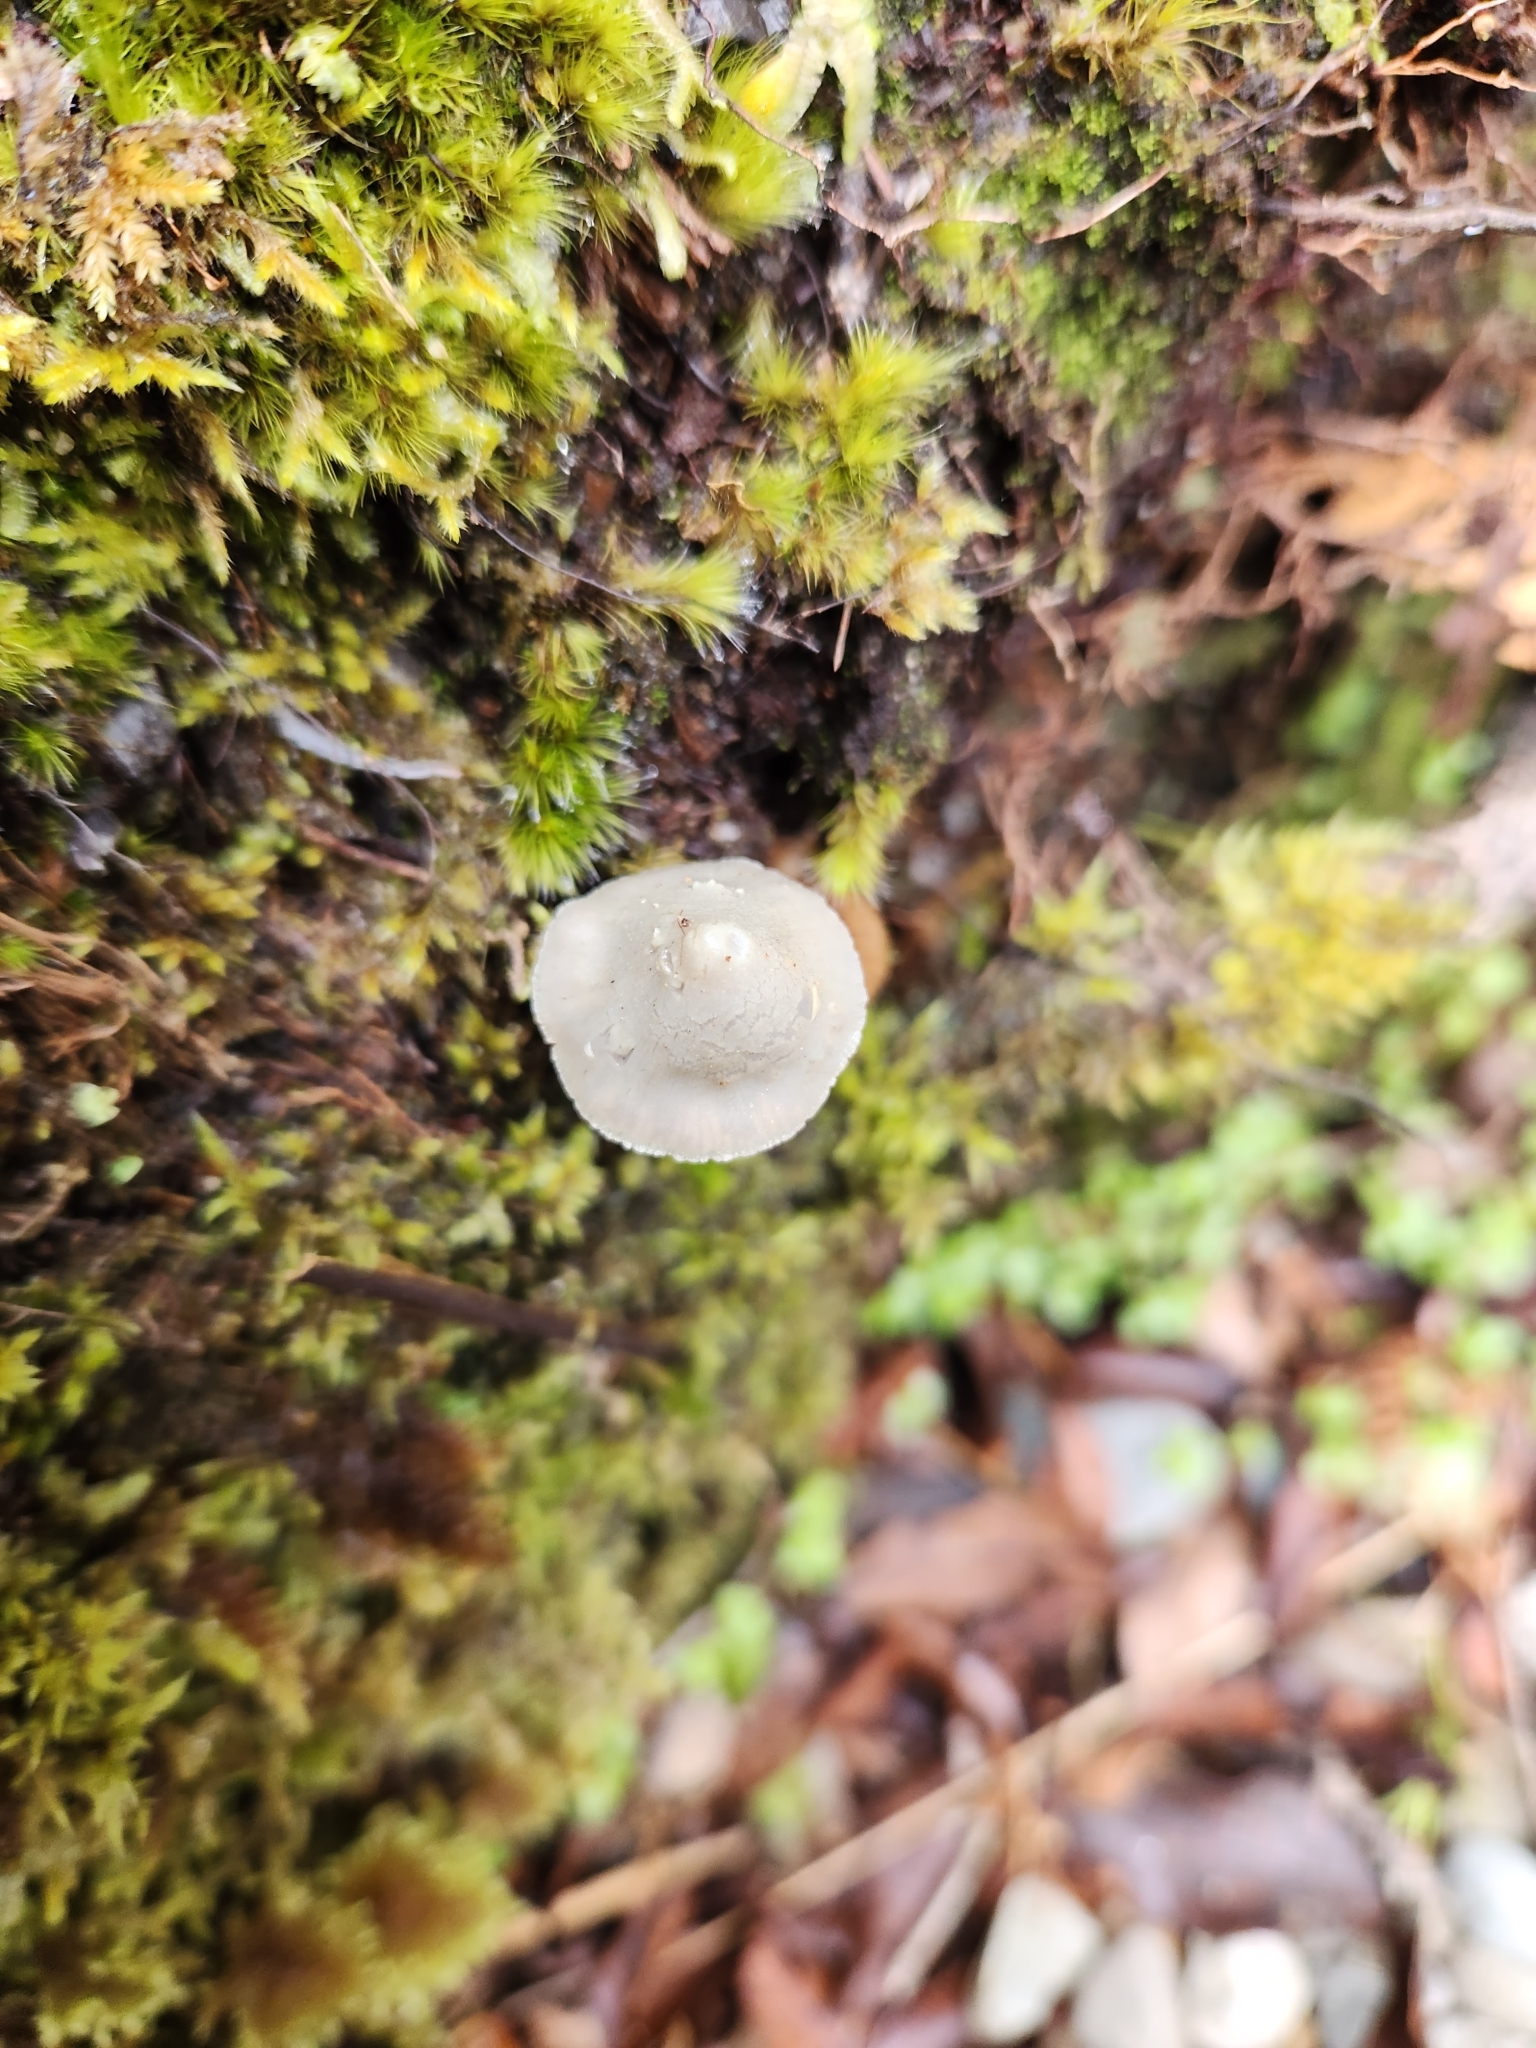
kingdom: Fungi
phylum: Basidiomycota
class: Agaricomycetes
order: Agaricales
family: Entolomataceae
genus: Entoloma
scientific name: Entoloma canoconicum
